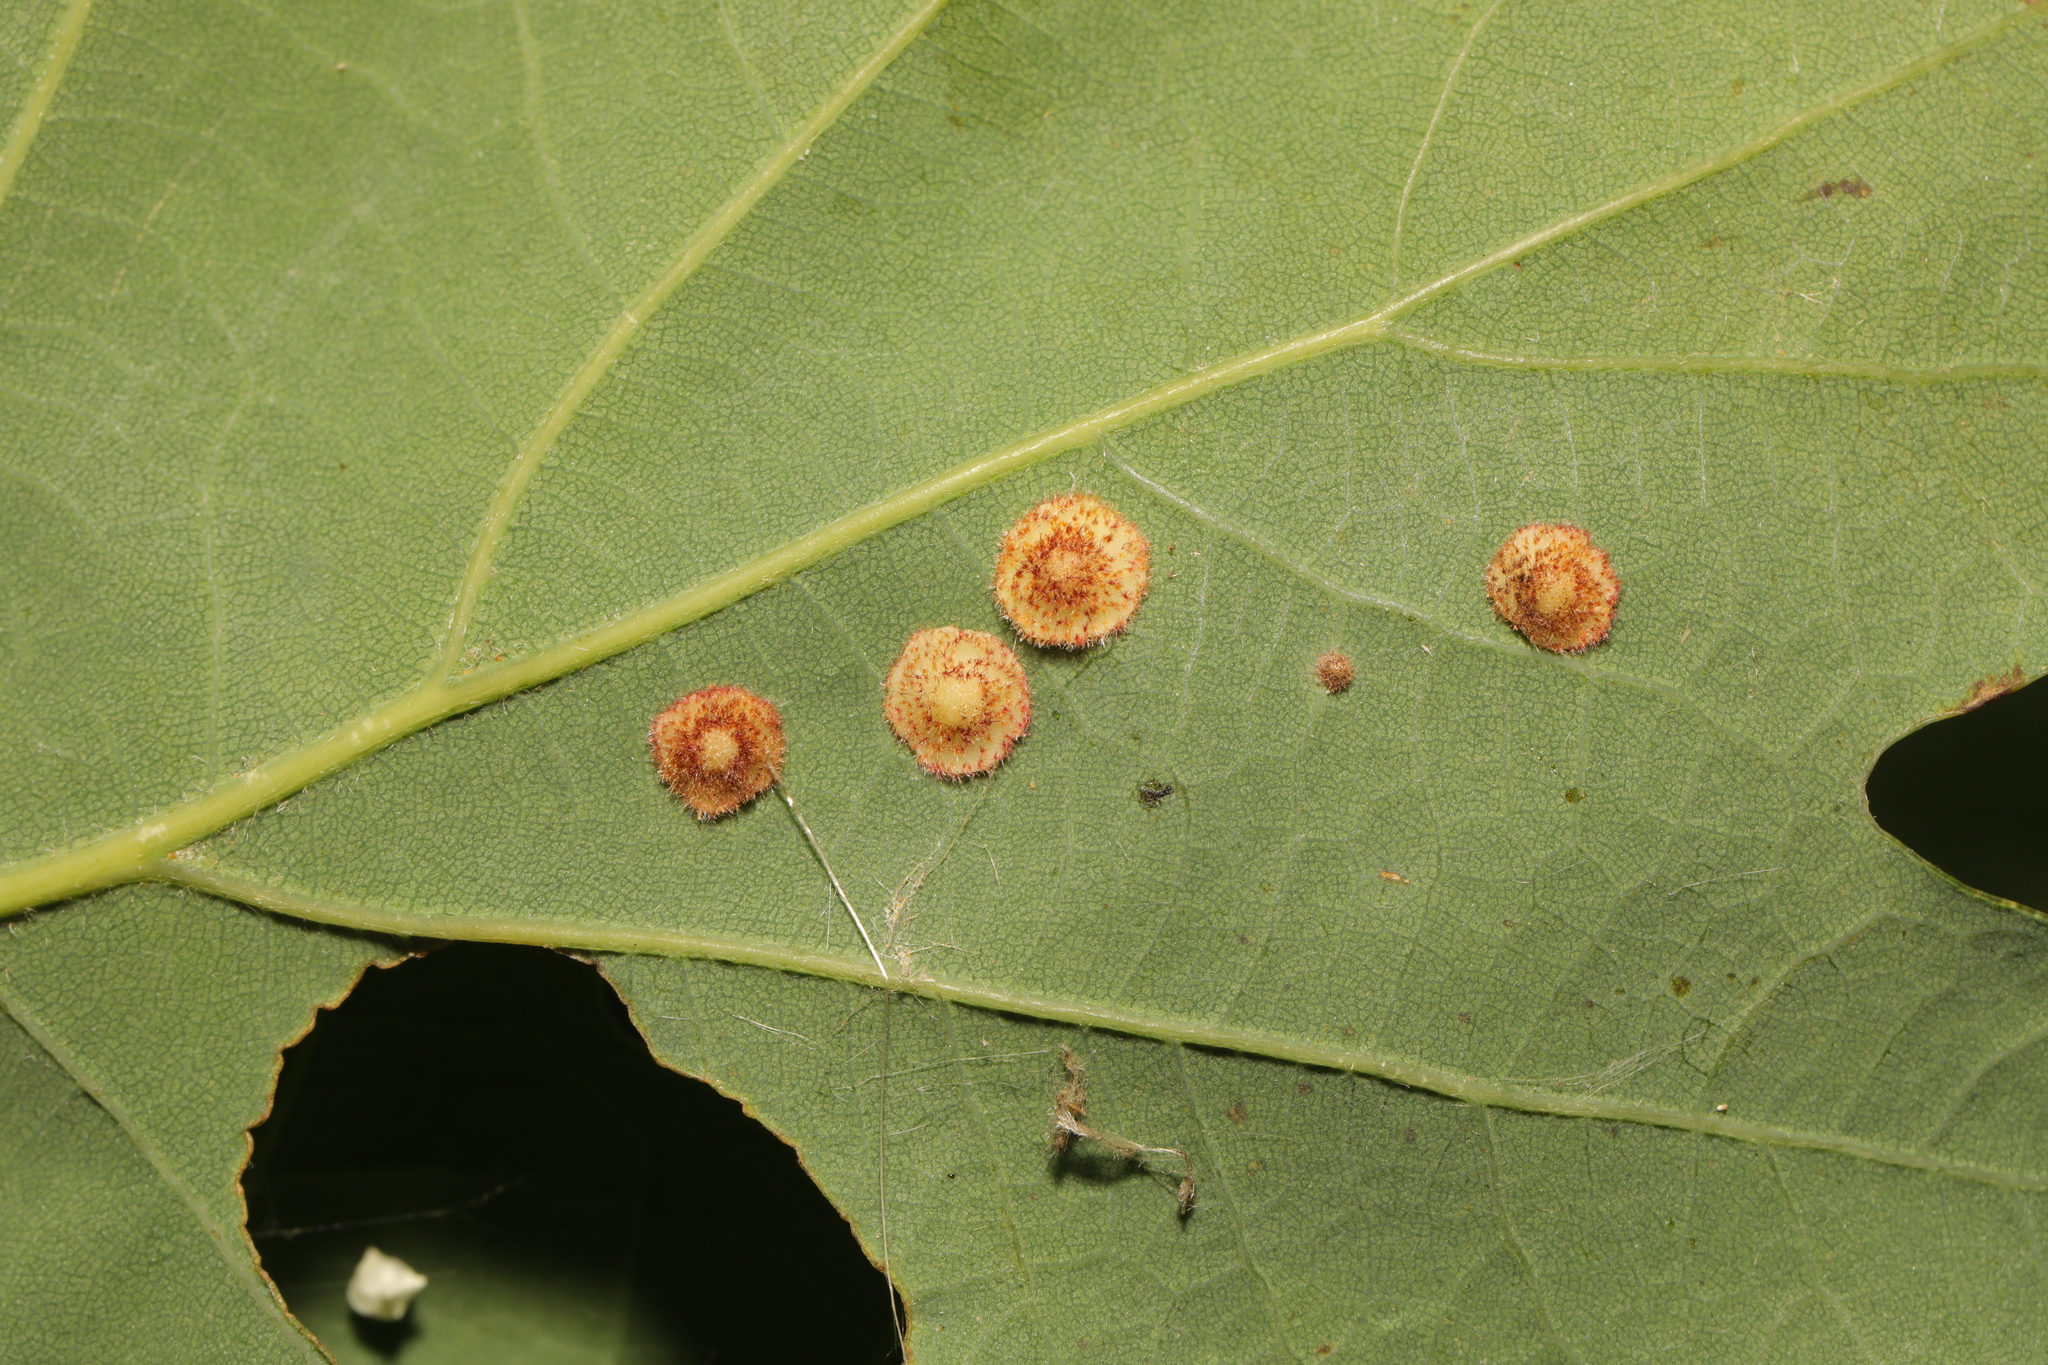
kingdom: Animalia
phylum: Arthropoda
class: Insecta
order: Hymenoptera
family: Cynipidae
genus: Neuroterus
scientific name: Neuroterus quercusbaccarum
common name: Common spangle gall
